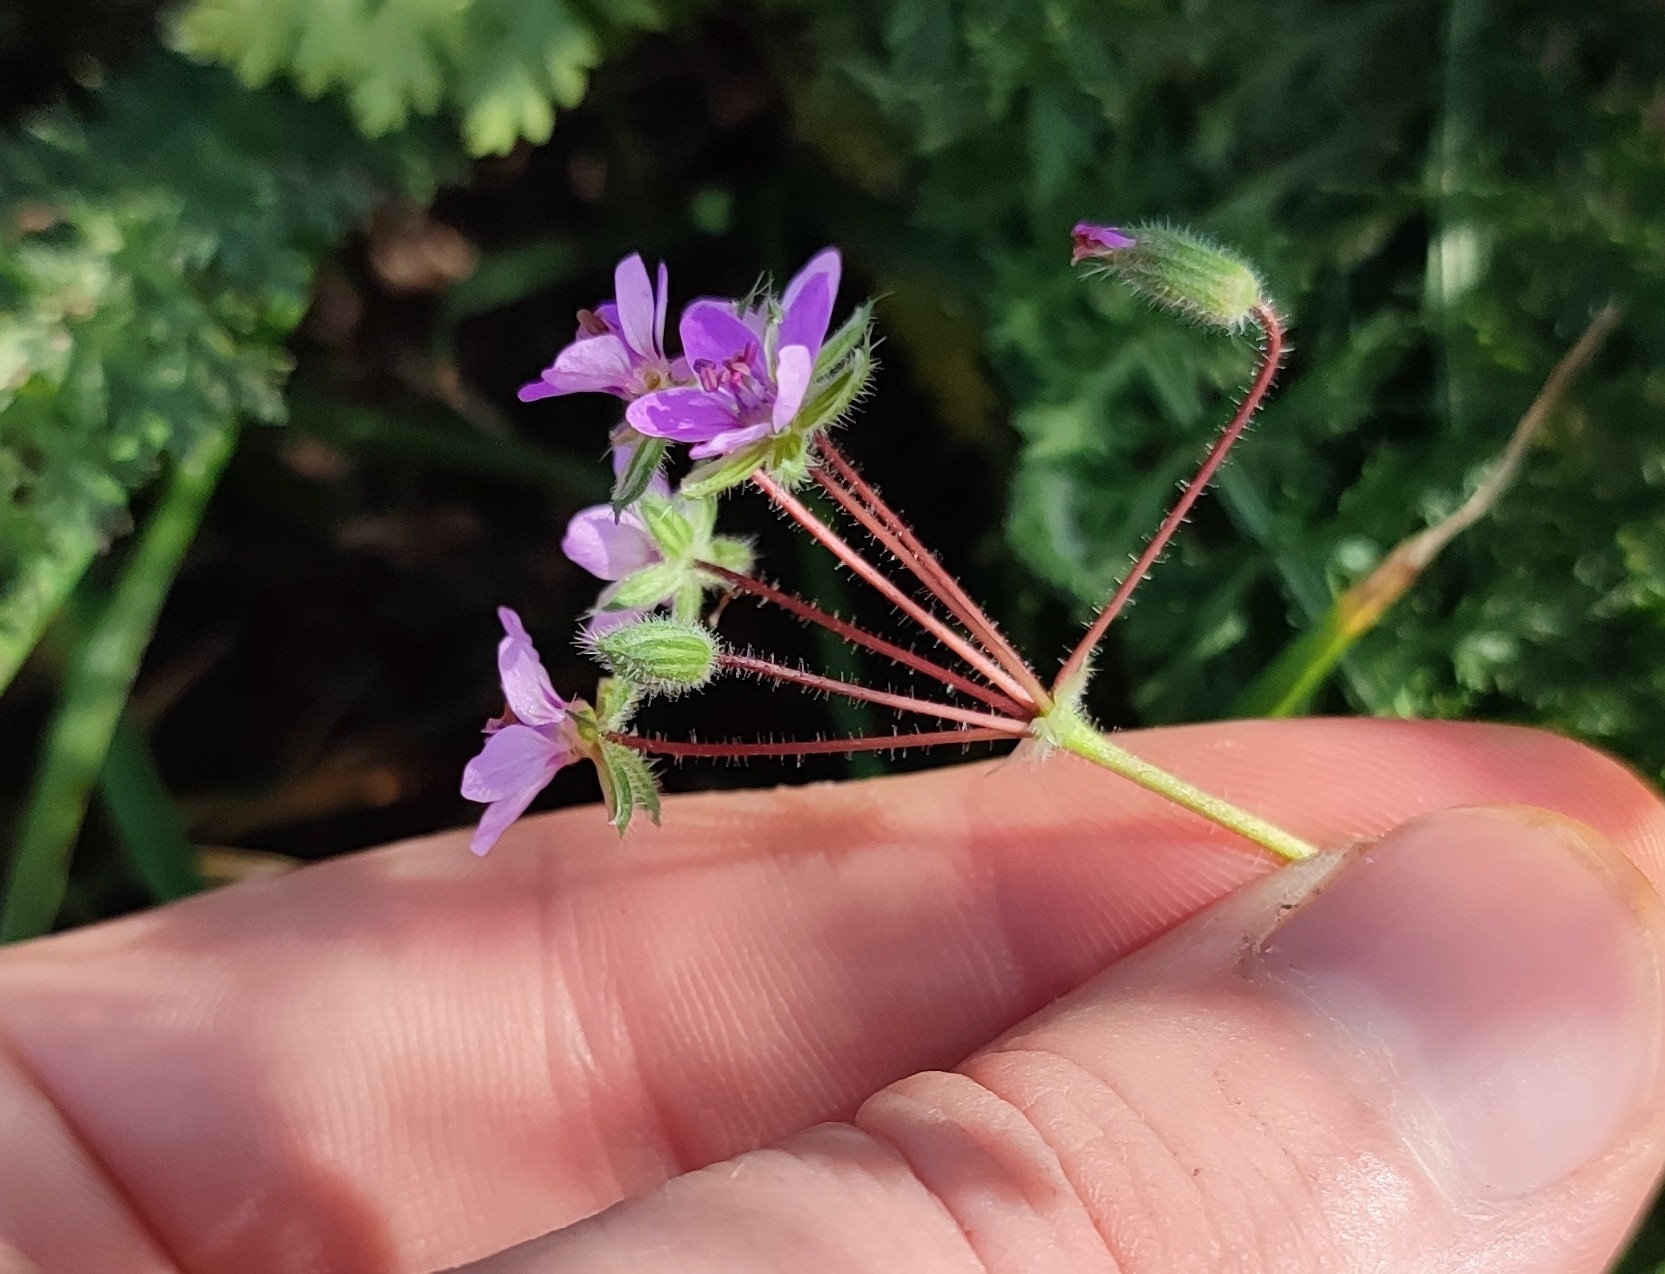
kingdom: Plantae
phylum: Tracheophyta
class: Magnoliopsida
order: Geraniales
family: Geraniaceae
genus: Erodium
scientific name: Erodium cicutarium
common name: Common stork's-bill
